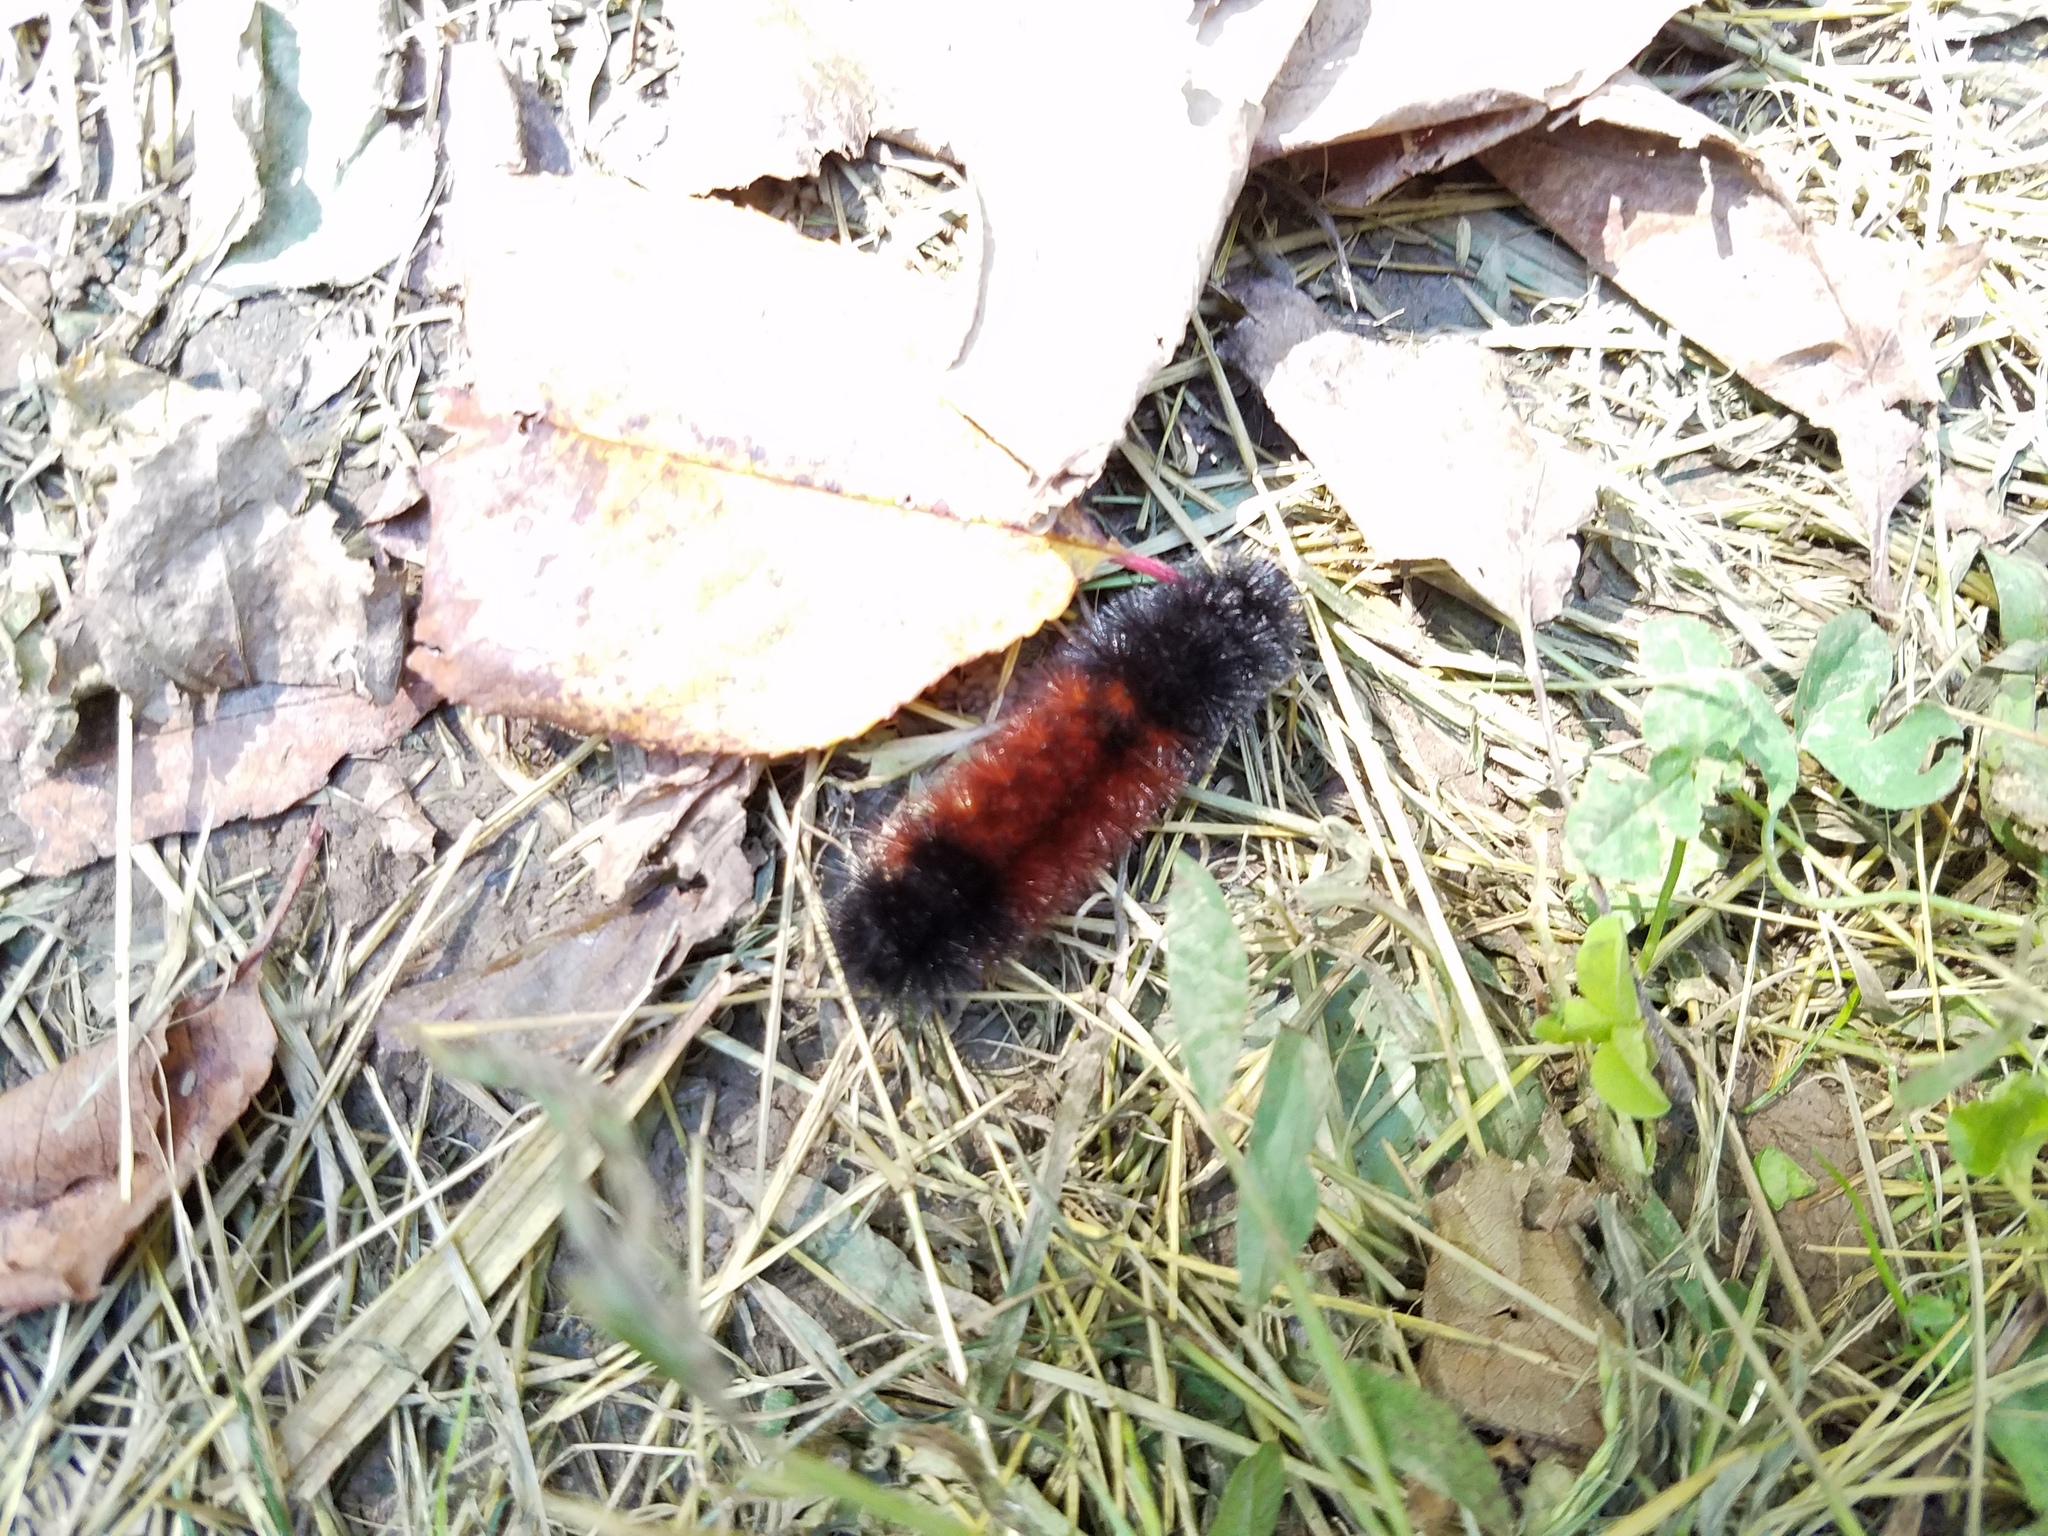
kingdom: Animalia
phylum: Arthropoda
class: Insecta
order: Lepidoptera
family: Erebidae
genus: Pyrrharctia
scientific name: Pyrrharctia isabella
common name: Isabella tiger moth
